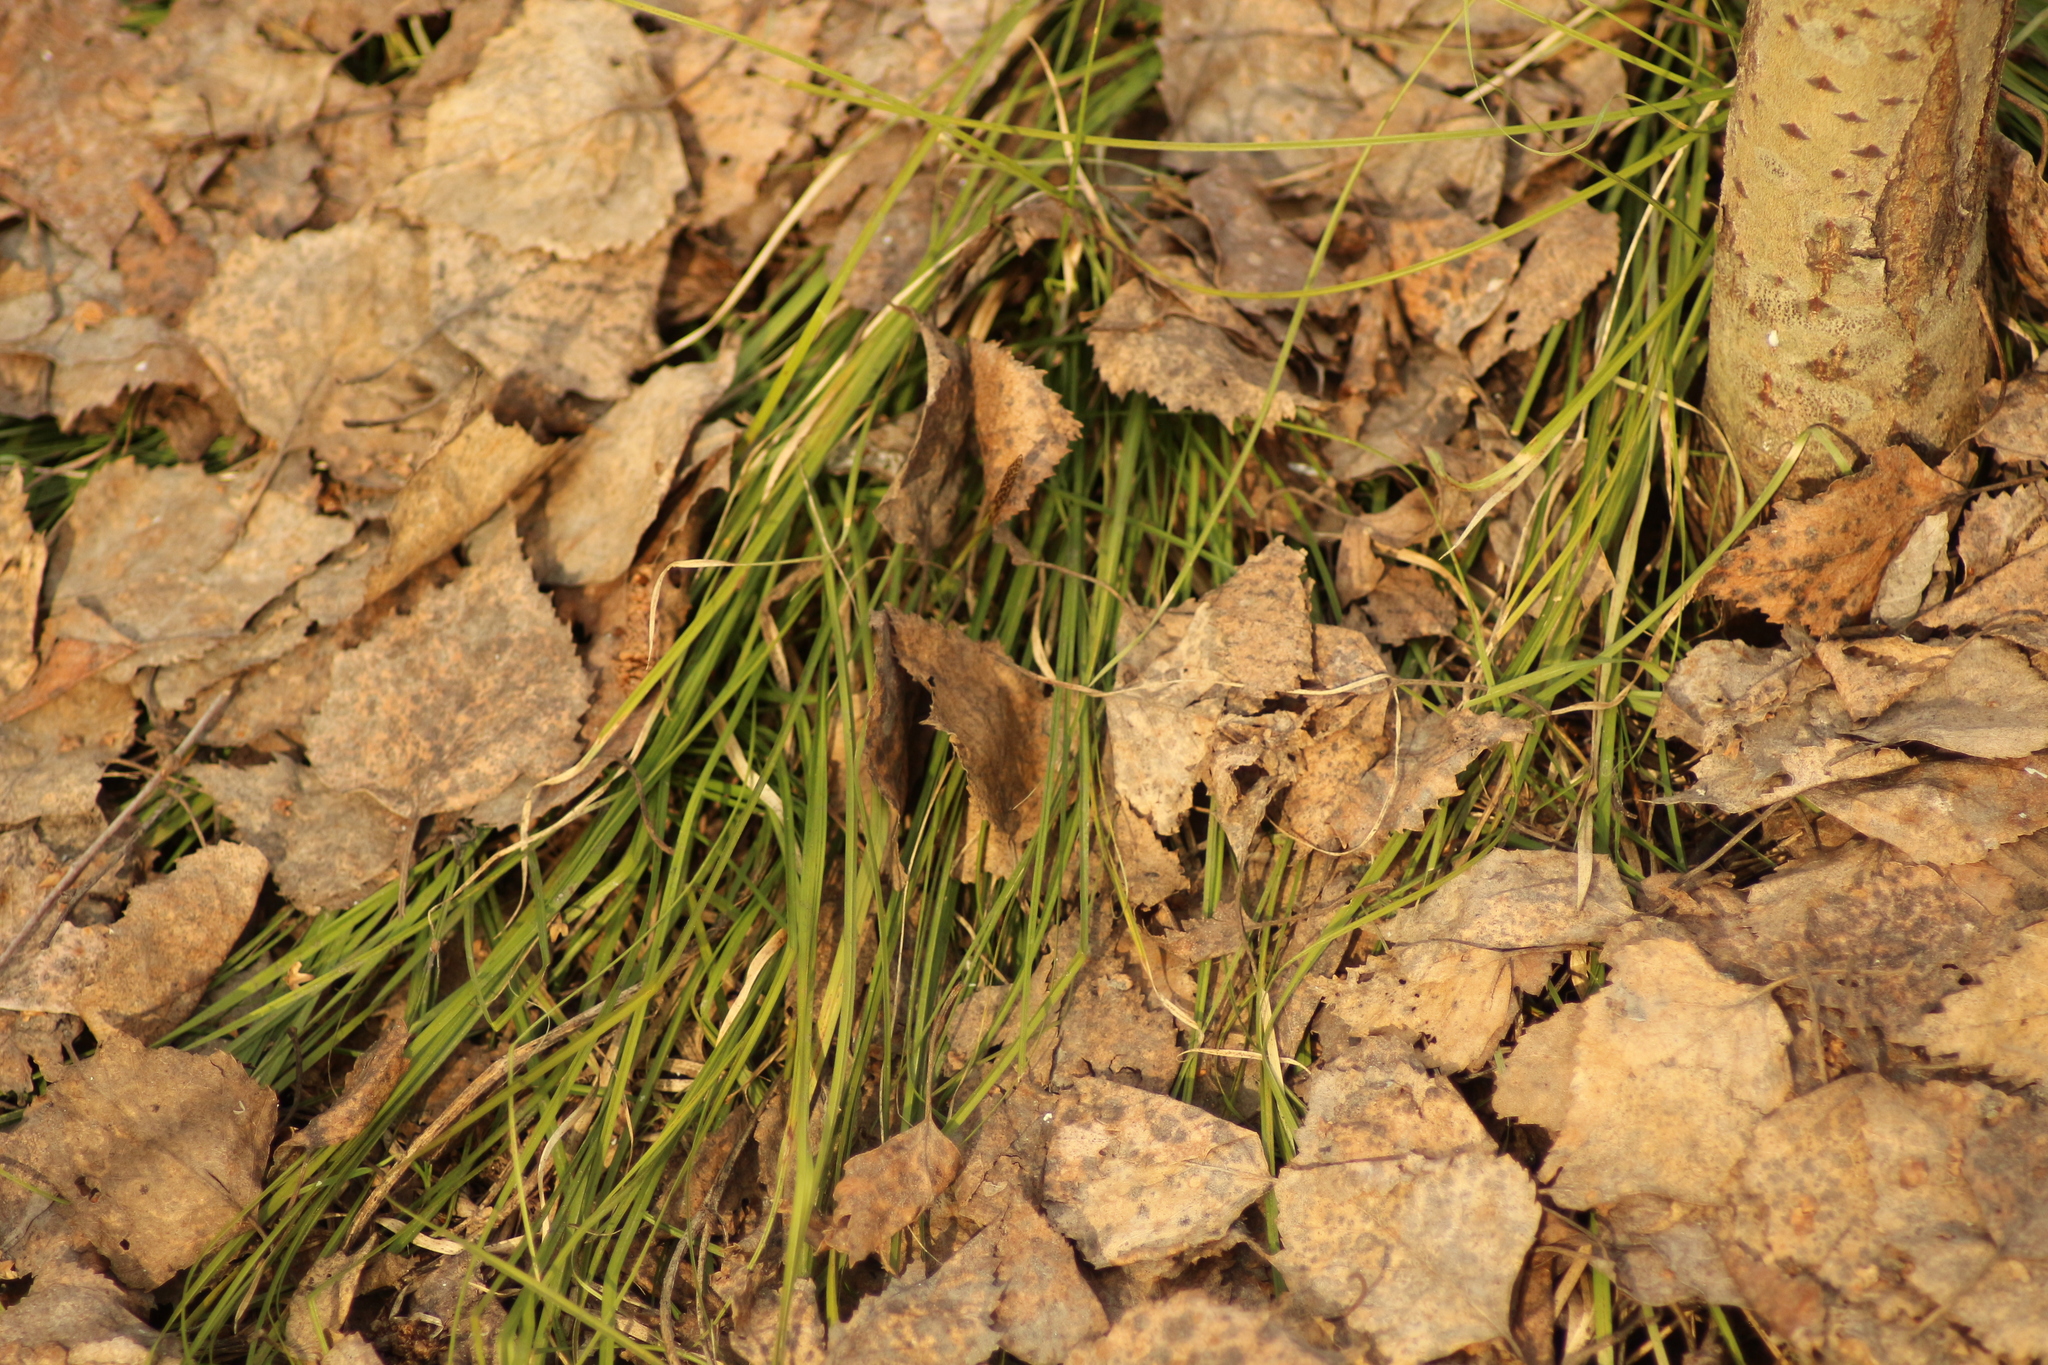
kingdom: Plantae
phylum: Tracheophyta
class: Liliopsida
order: Poales
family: Cyperaceae
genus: Carex
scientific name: Carex pediformis
